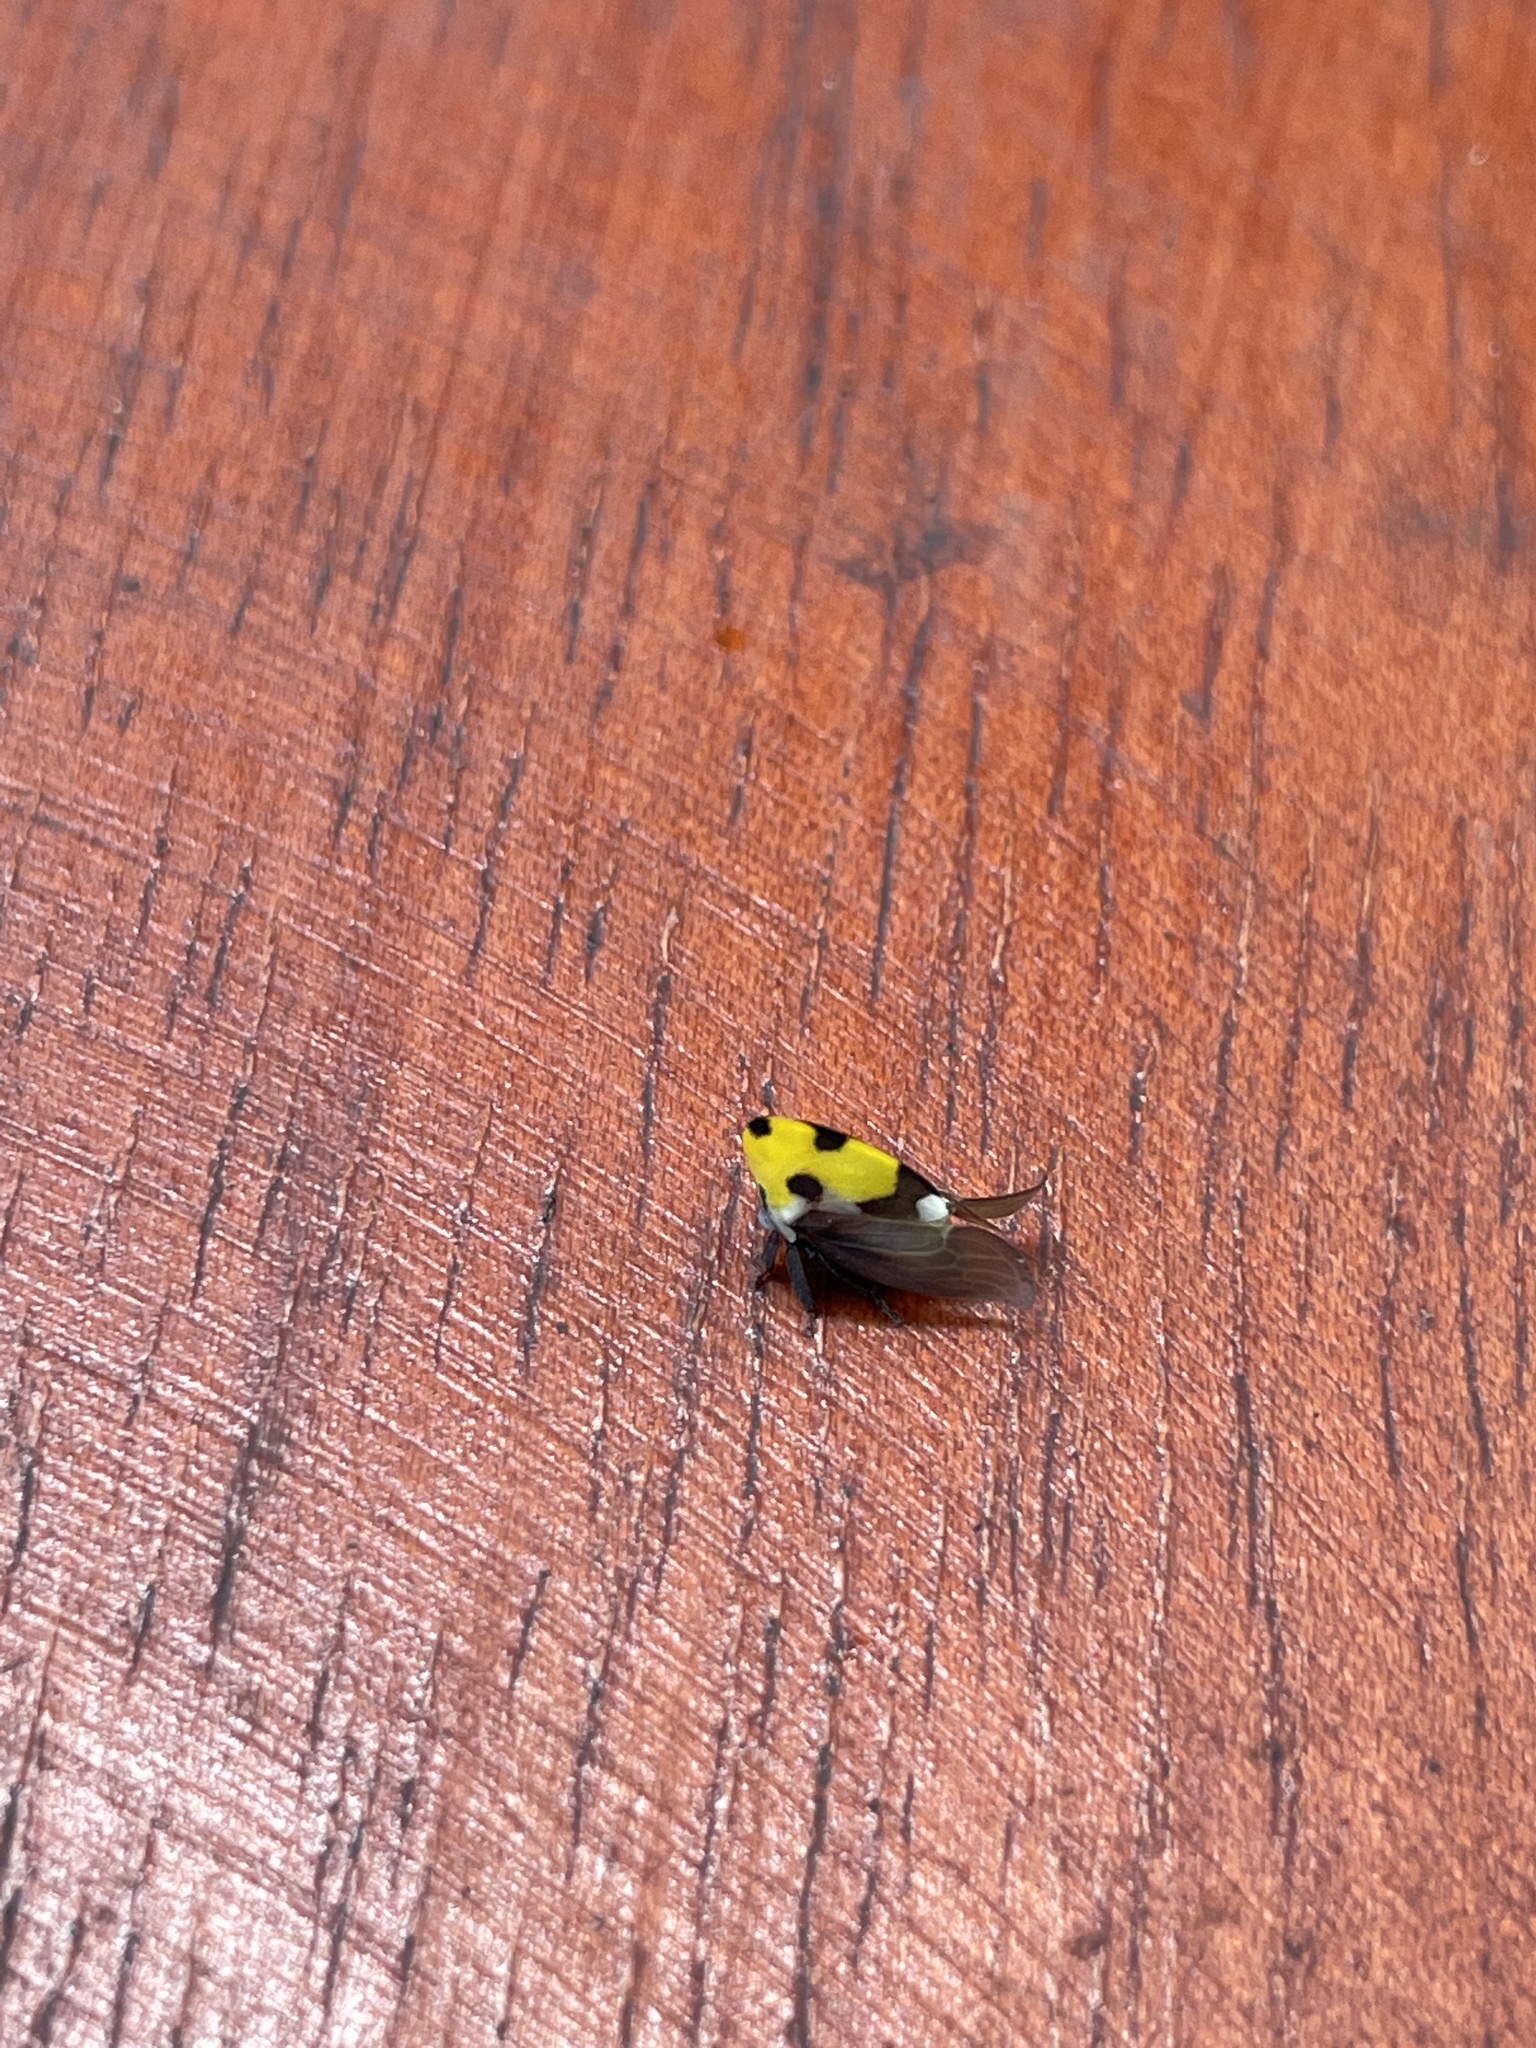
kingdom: Animalia
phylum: Arthropoda
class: Insecta
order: Hemiptera
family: Membracidae
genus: Membracis
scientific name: Membracis mexicana
